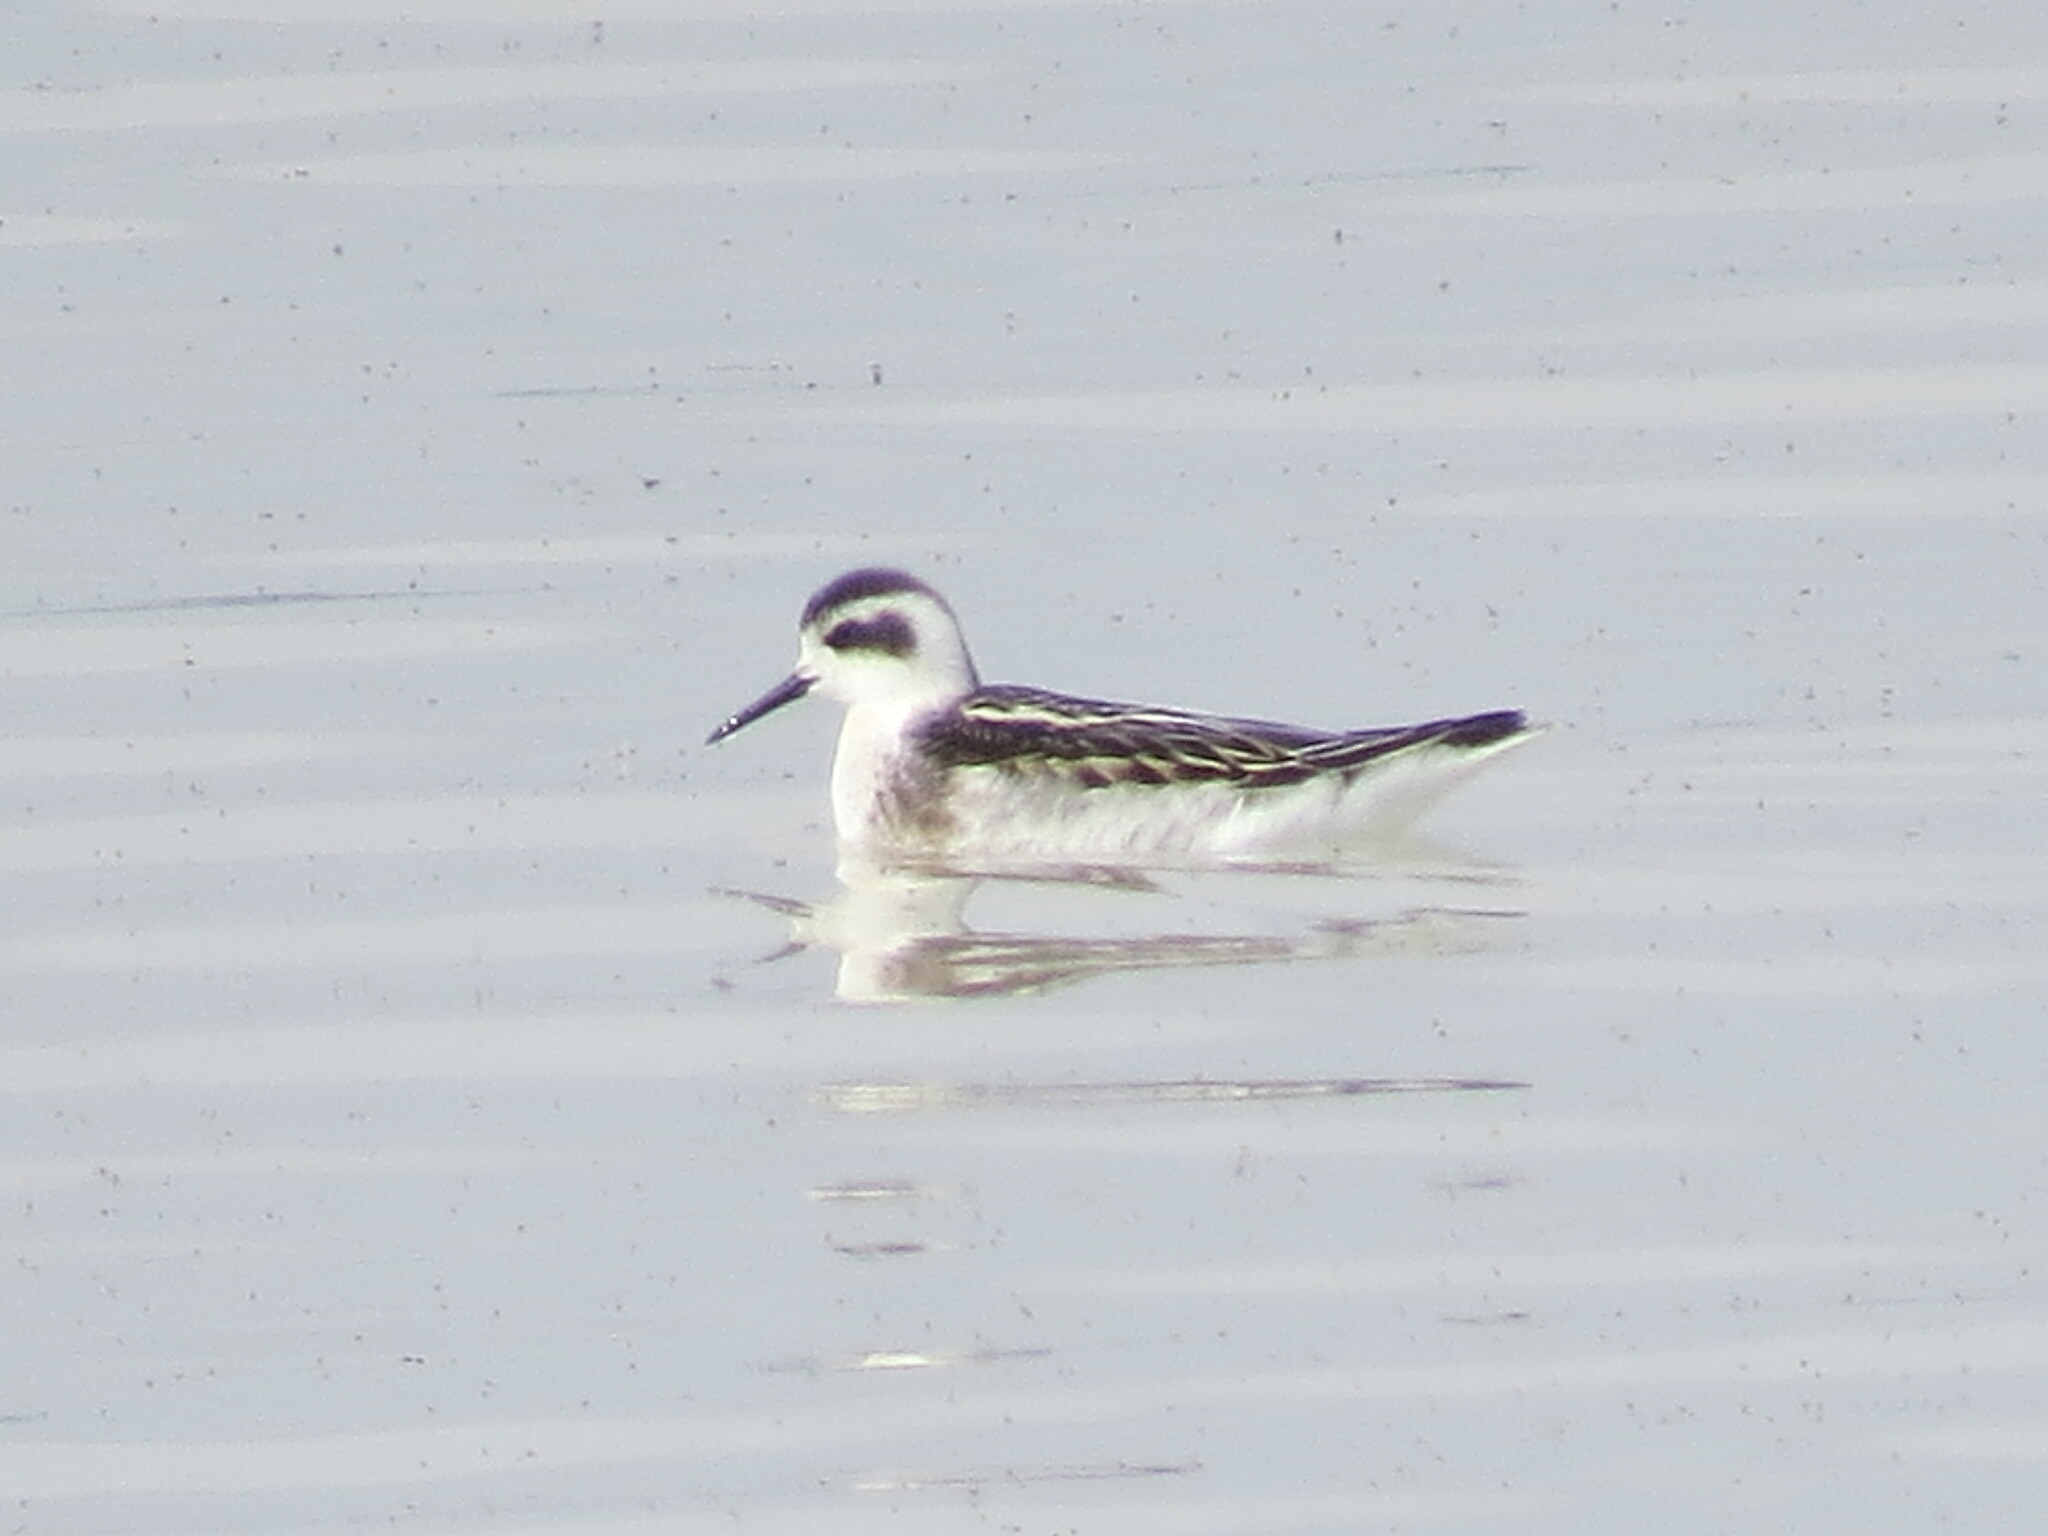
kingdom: Animalia
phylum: Chordata
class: Aves
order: Charadriiformes
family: Scolopacidae
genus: Phalaropus
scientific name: Phalaropus lobatus
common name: Red-necked phalarope
